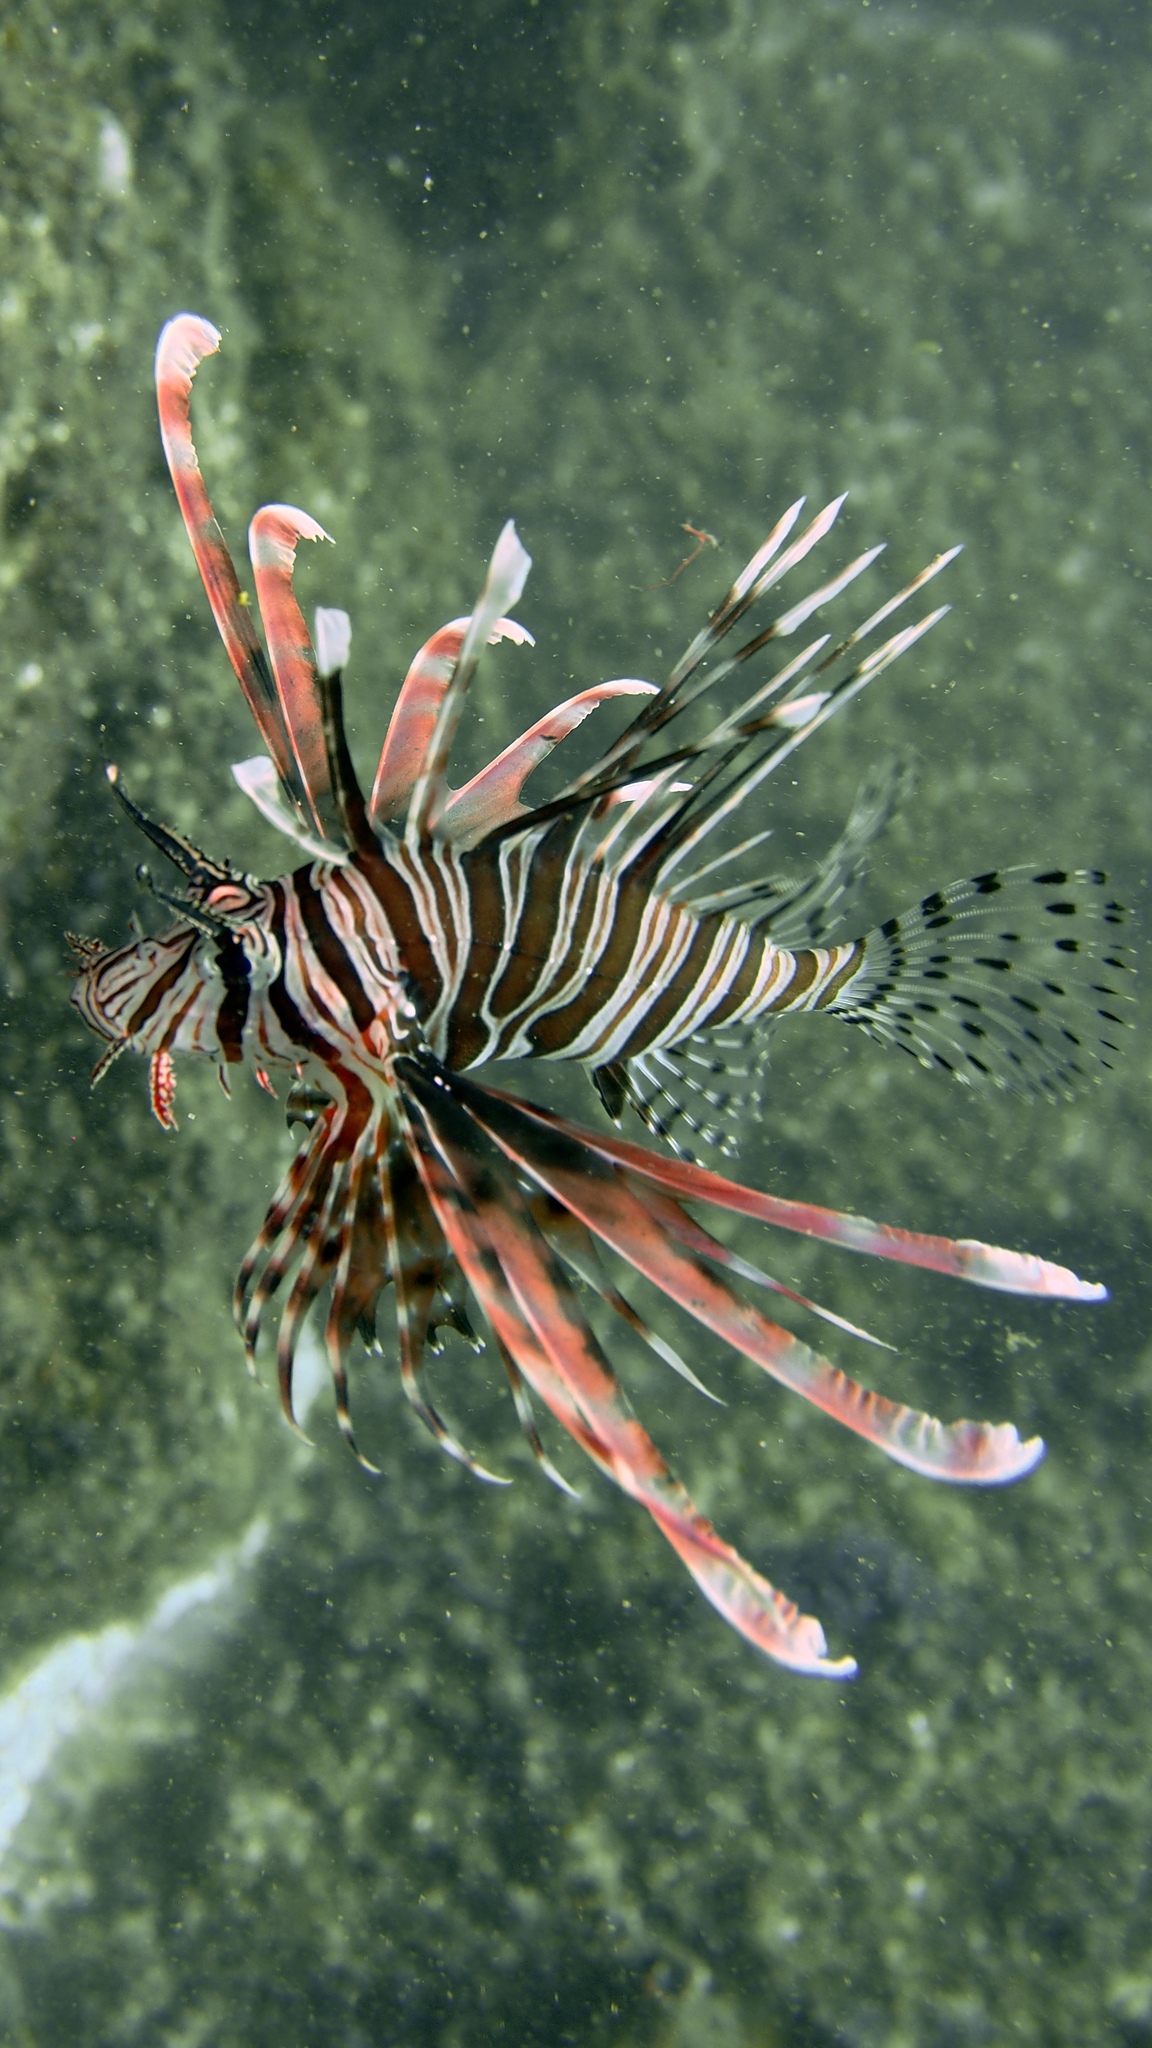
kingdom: Animalia
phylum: Chordata
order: Scorpaeniformes
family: Scorpaenidae
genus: Pterois
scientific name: Pterois volitans
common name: Lionfish
